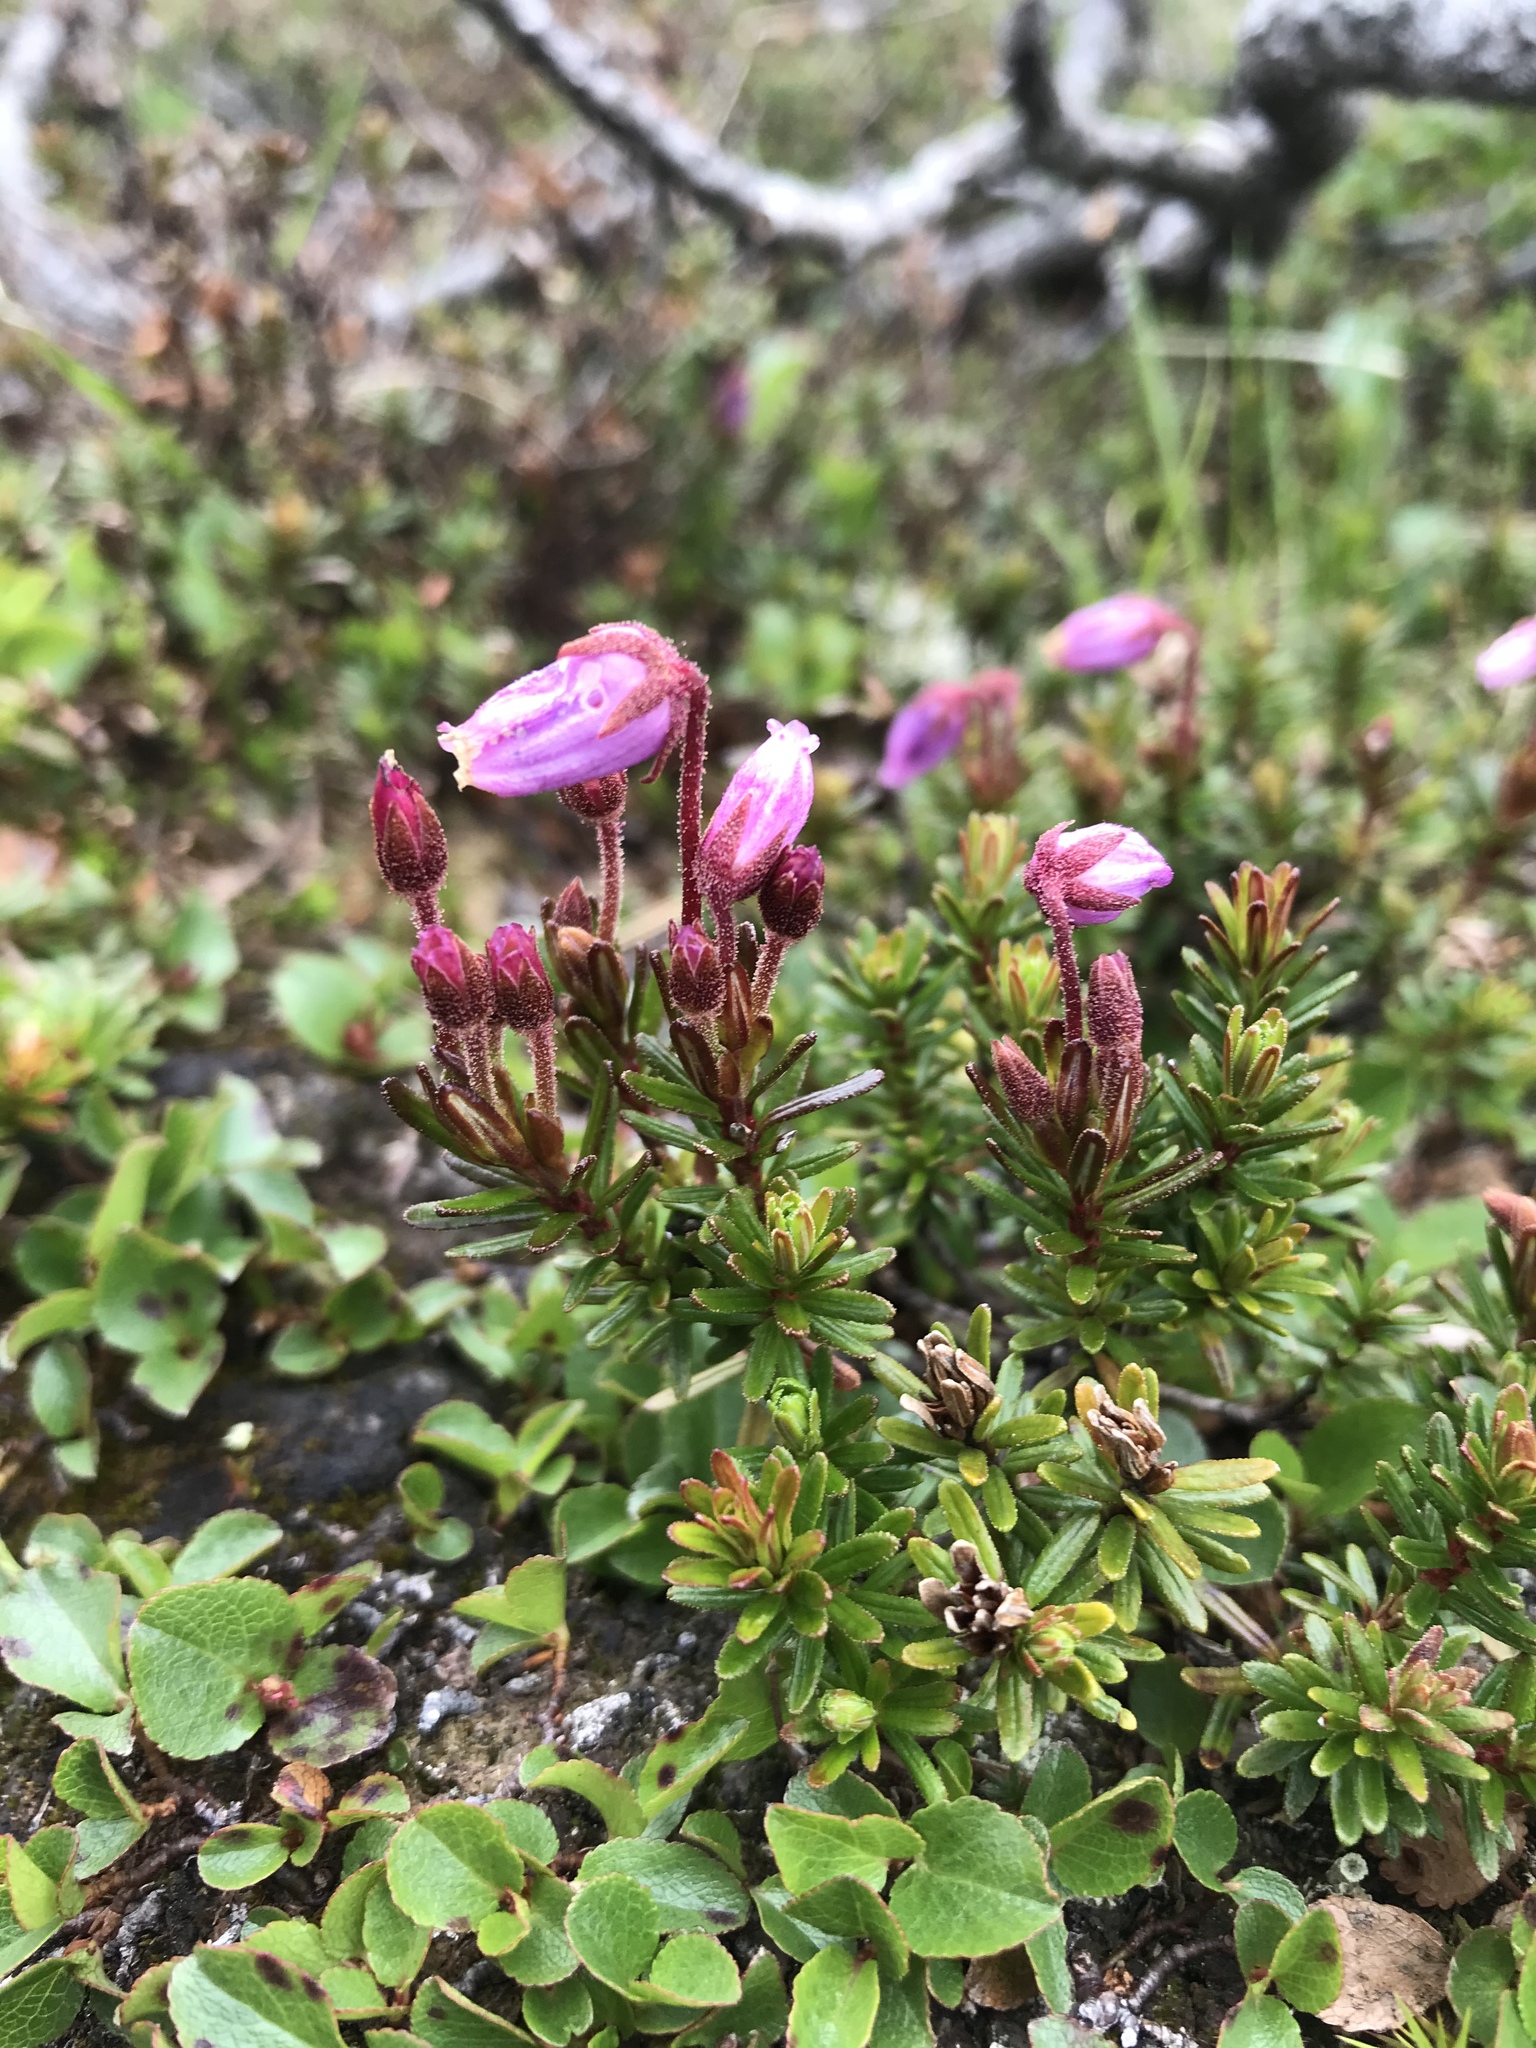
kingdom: Plantae
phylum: Tracheophyta
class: Magnoliopsida
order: Ericales
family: Ericaceae
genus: Phyllodoce
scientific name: Phyllodoce caerulea
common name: Blue heath
